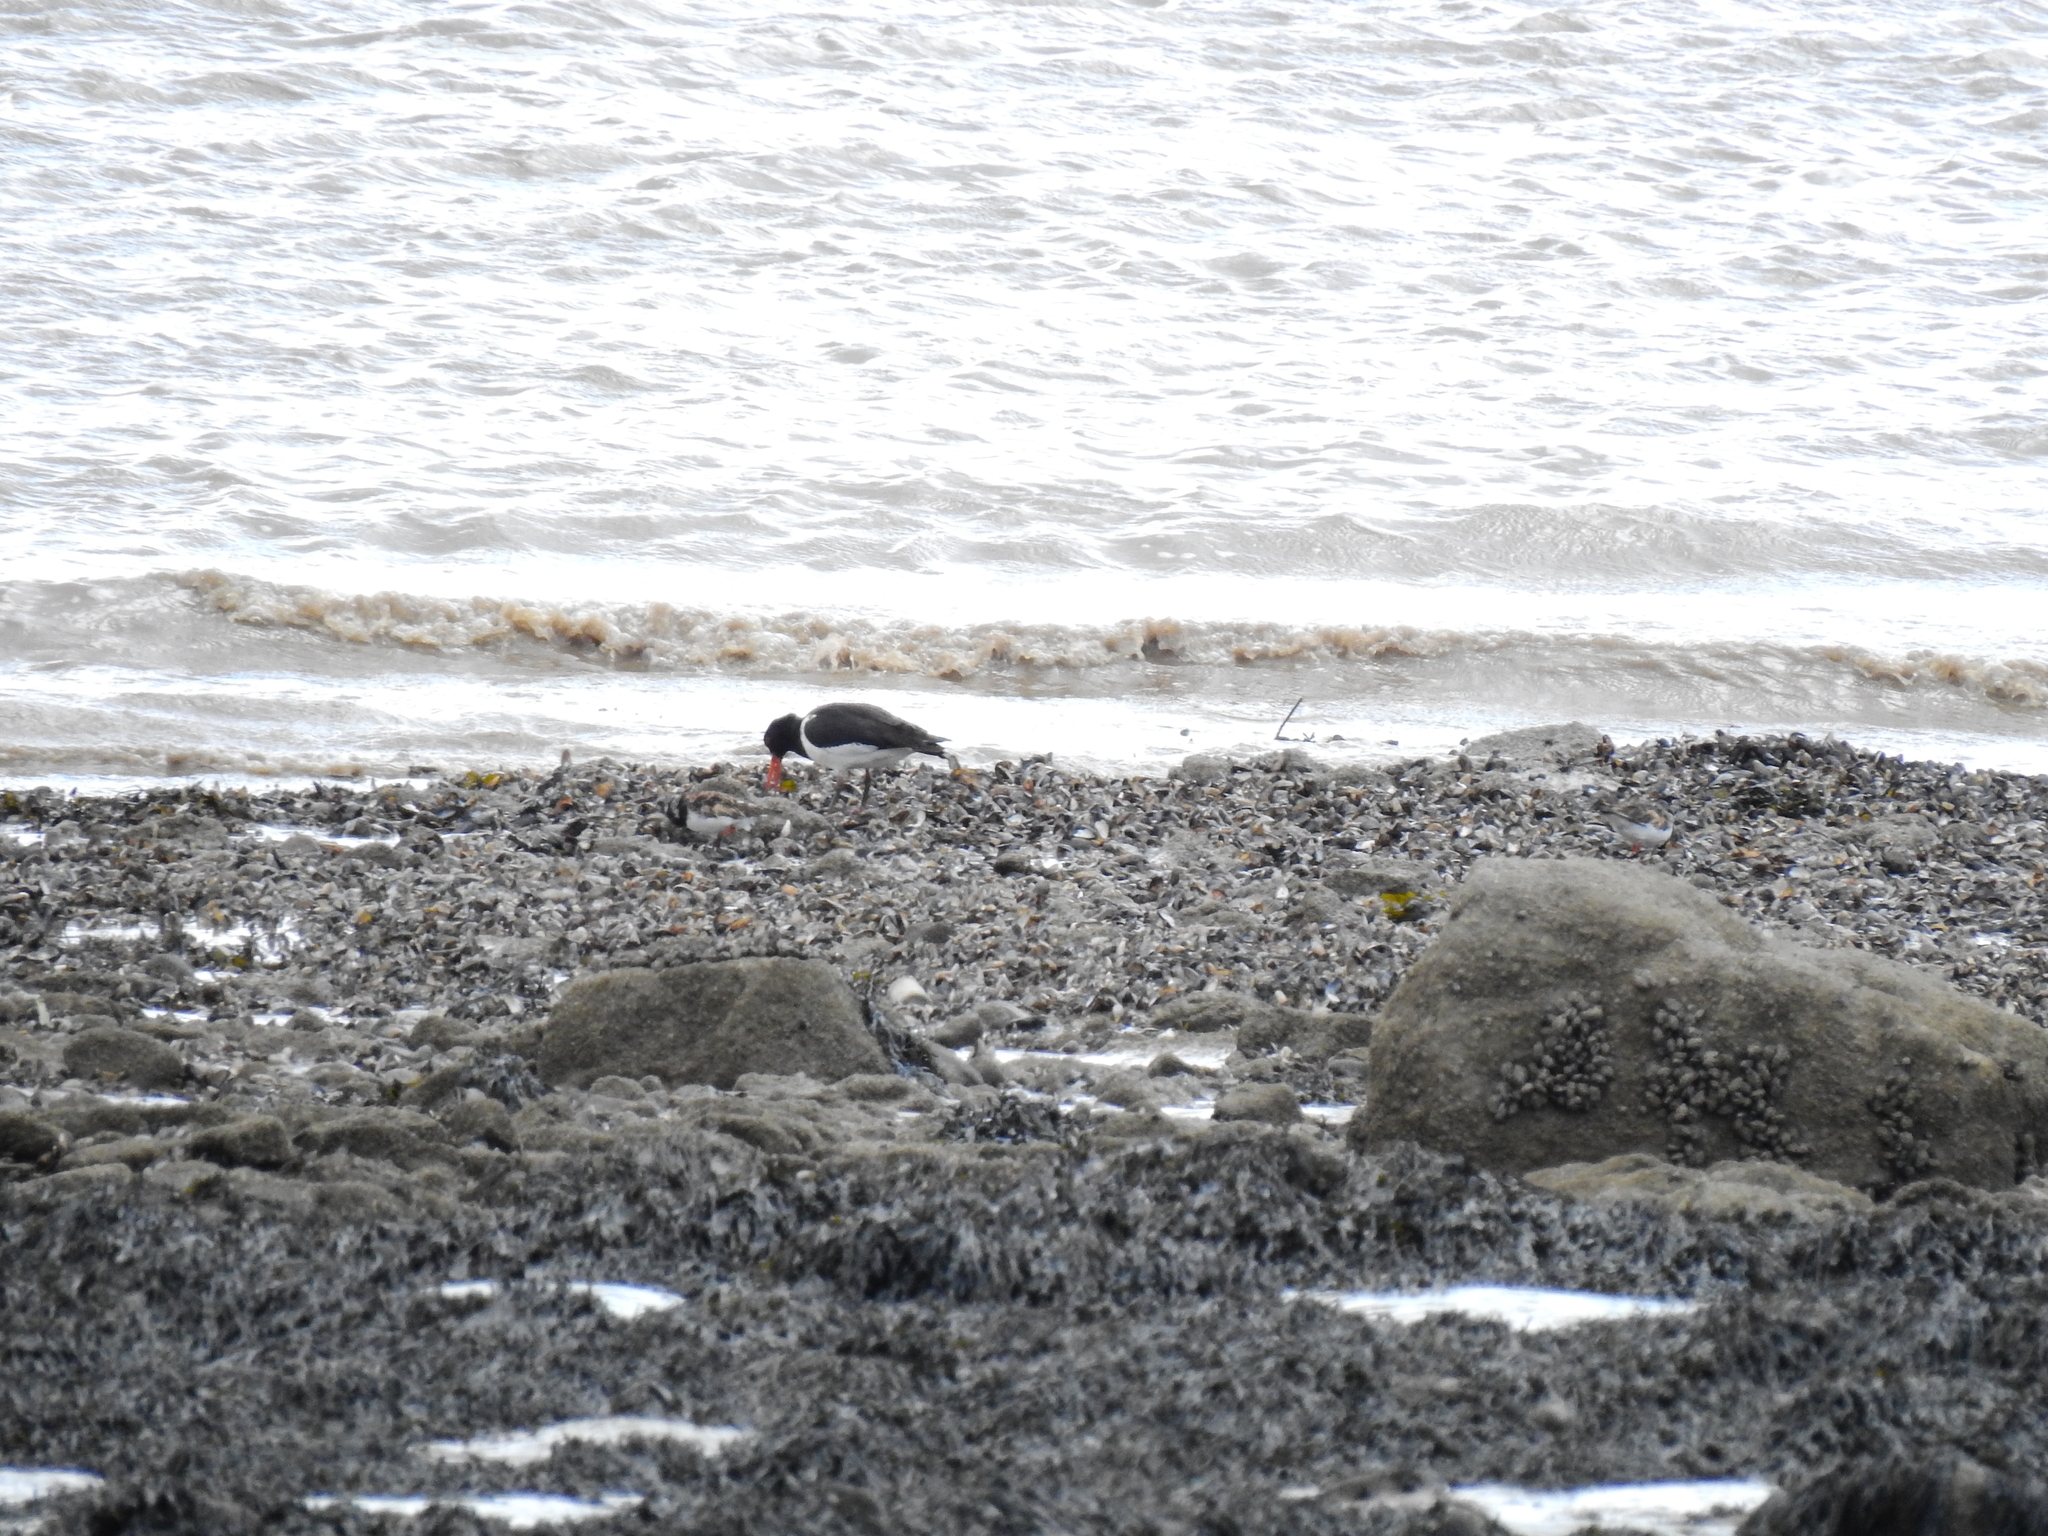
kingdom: Animalia
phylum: Chordata
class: Aves
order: Charadriiformes
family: Haematopodidae
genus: Haematopus
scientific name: Haematopus ostralegus
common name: Eurasian oystercatcher
